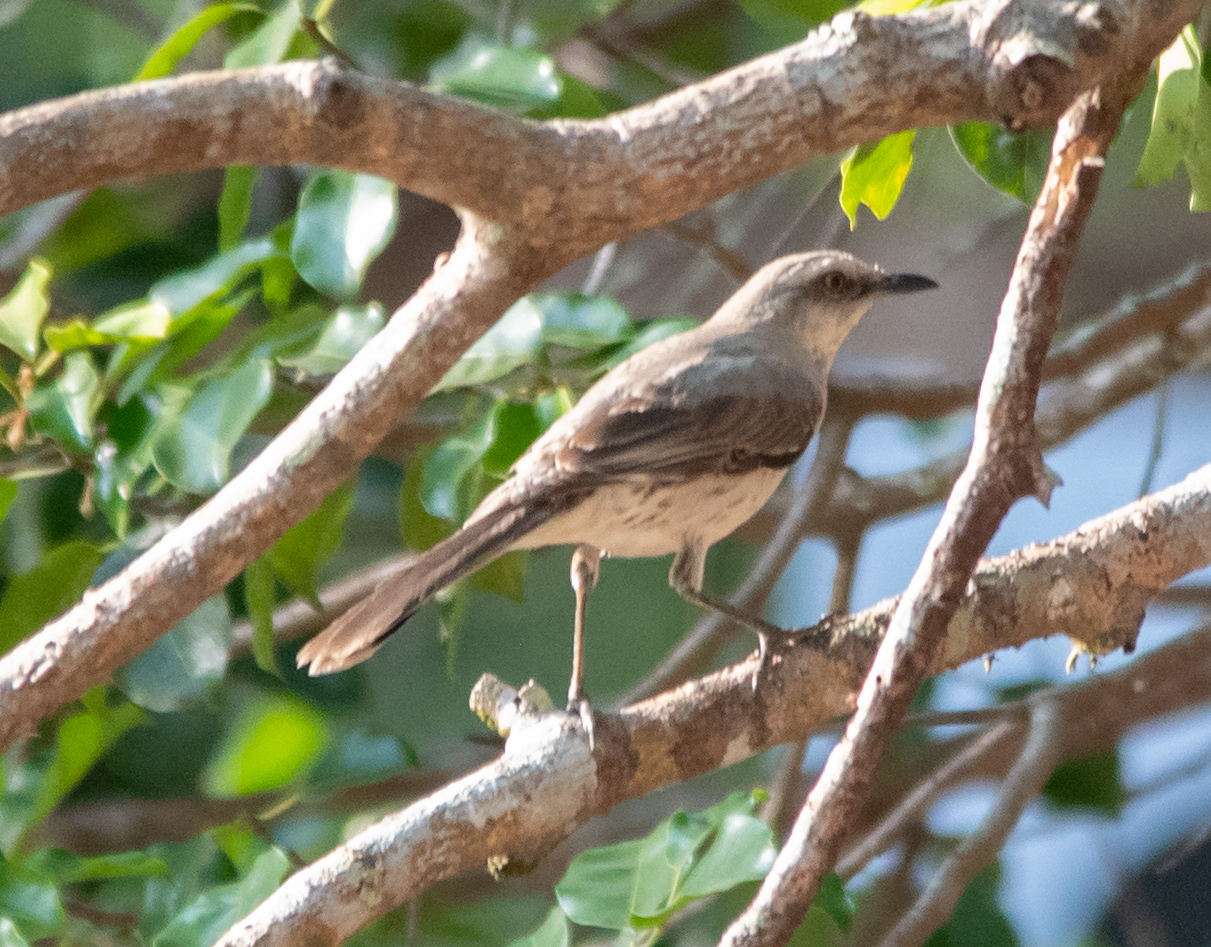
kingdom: Animalia
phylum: Chordata
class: Aves
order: Passeriformes
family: Mimidae
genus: Mimus
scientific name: Mimus gilvus
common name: Tropical mockingbird
